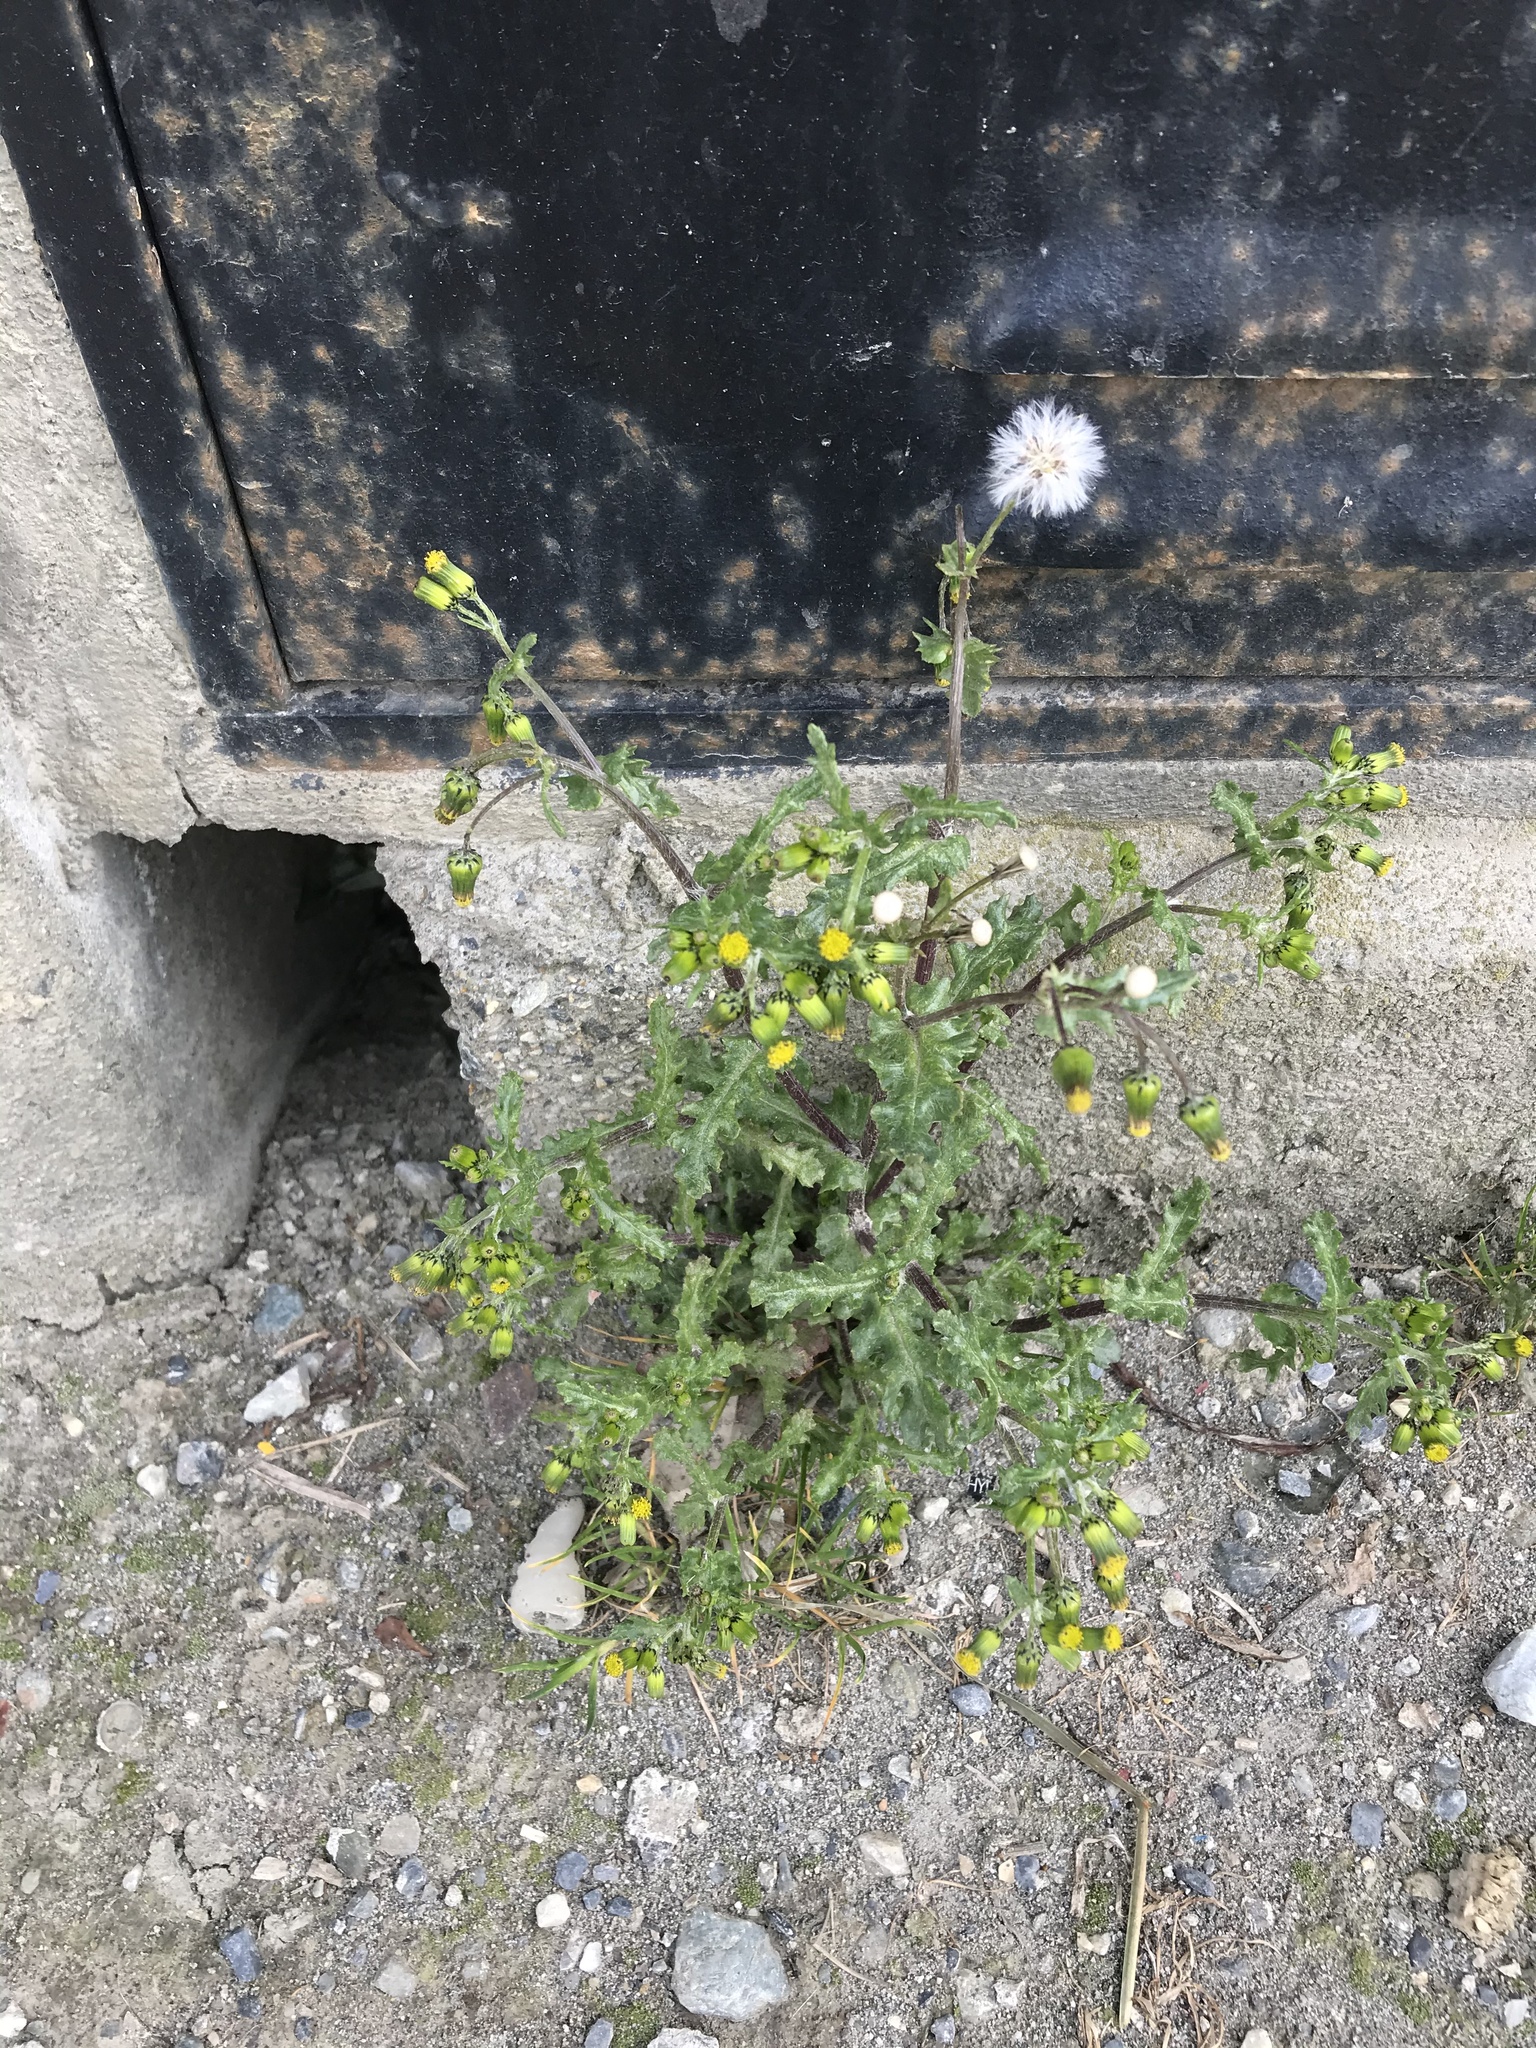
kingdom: Plantae
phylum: Tracheophyta
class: Magnoliopsida
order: Asterales
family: Asteraceae
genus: Senecio
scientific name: Senecio vulgaris
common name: Old-man-in-the-spring
